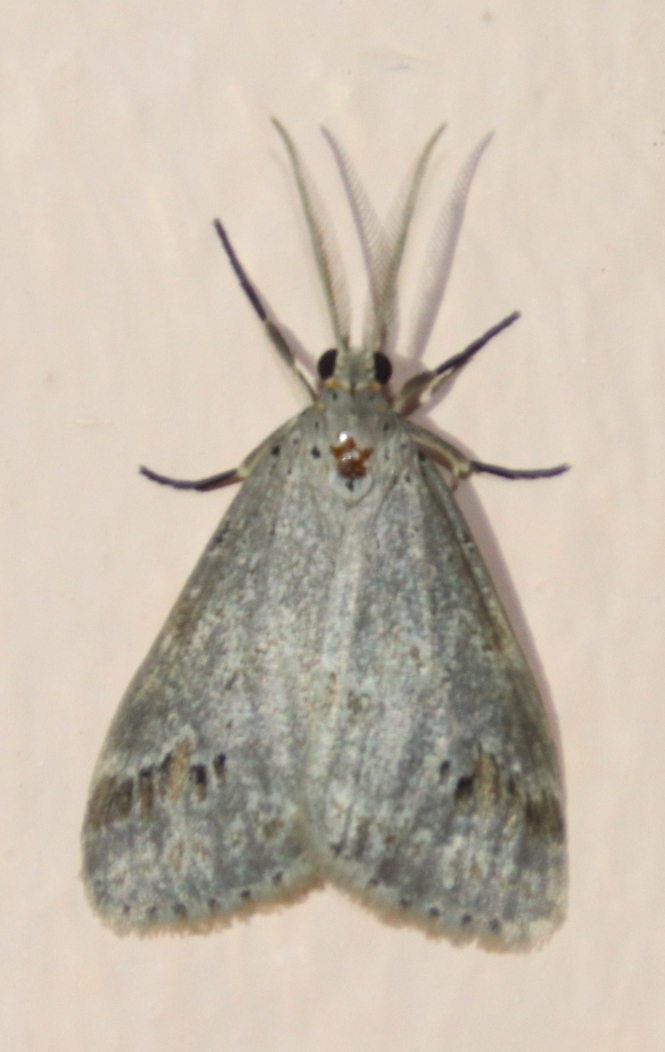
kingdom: Animalia
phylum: Arthropoda
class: Insecta
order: Lepidoptera
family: Erebidae
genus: Galtara
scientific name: Galtara rostrata
